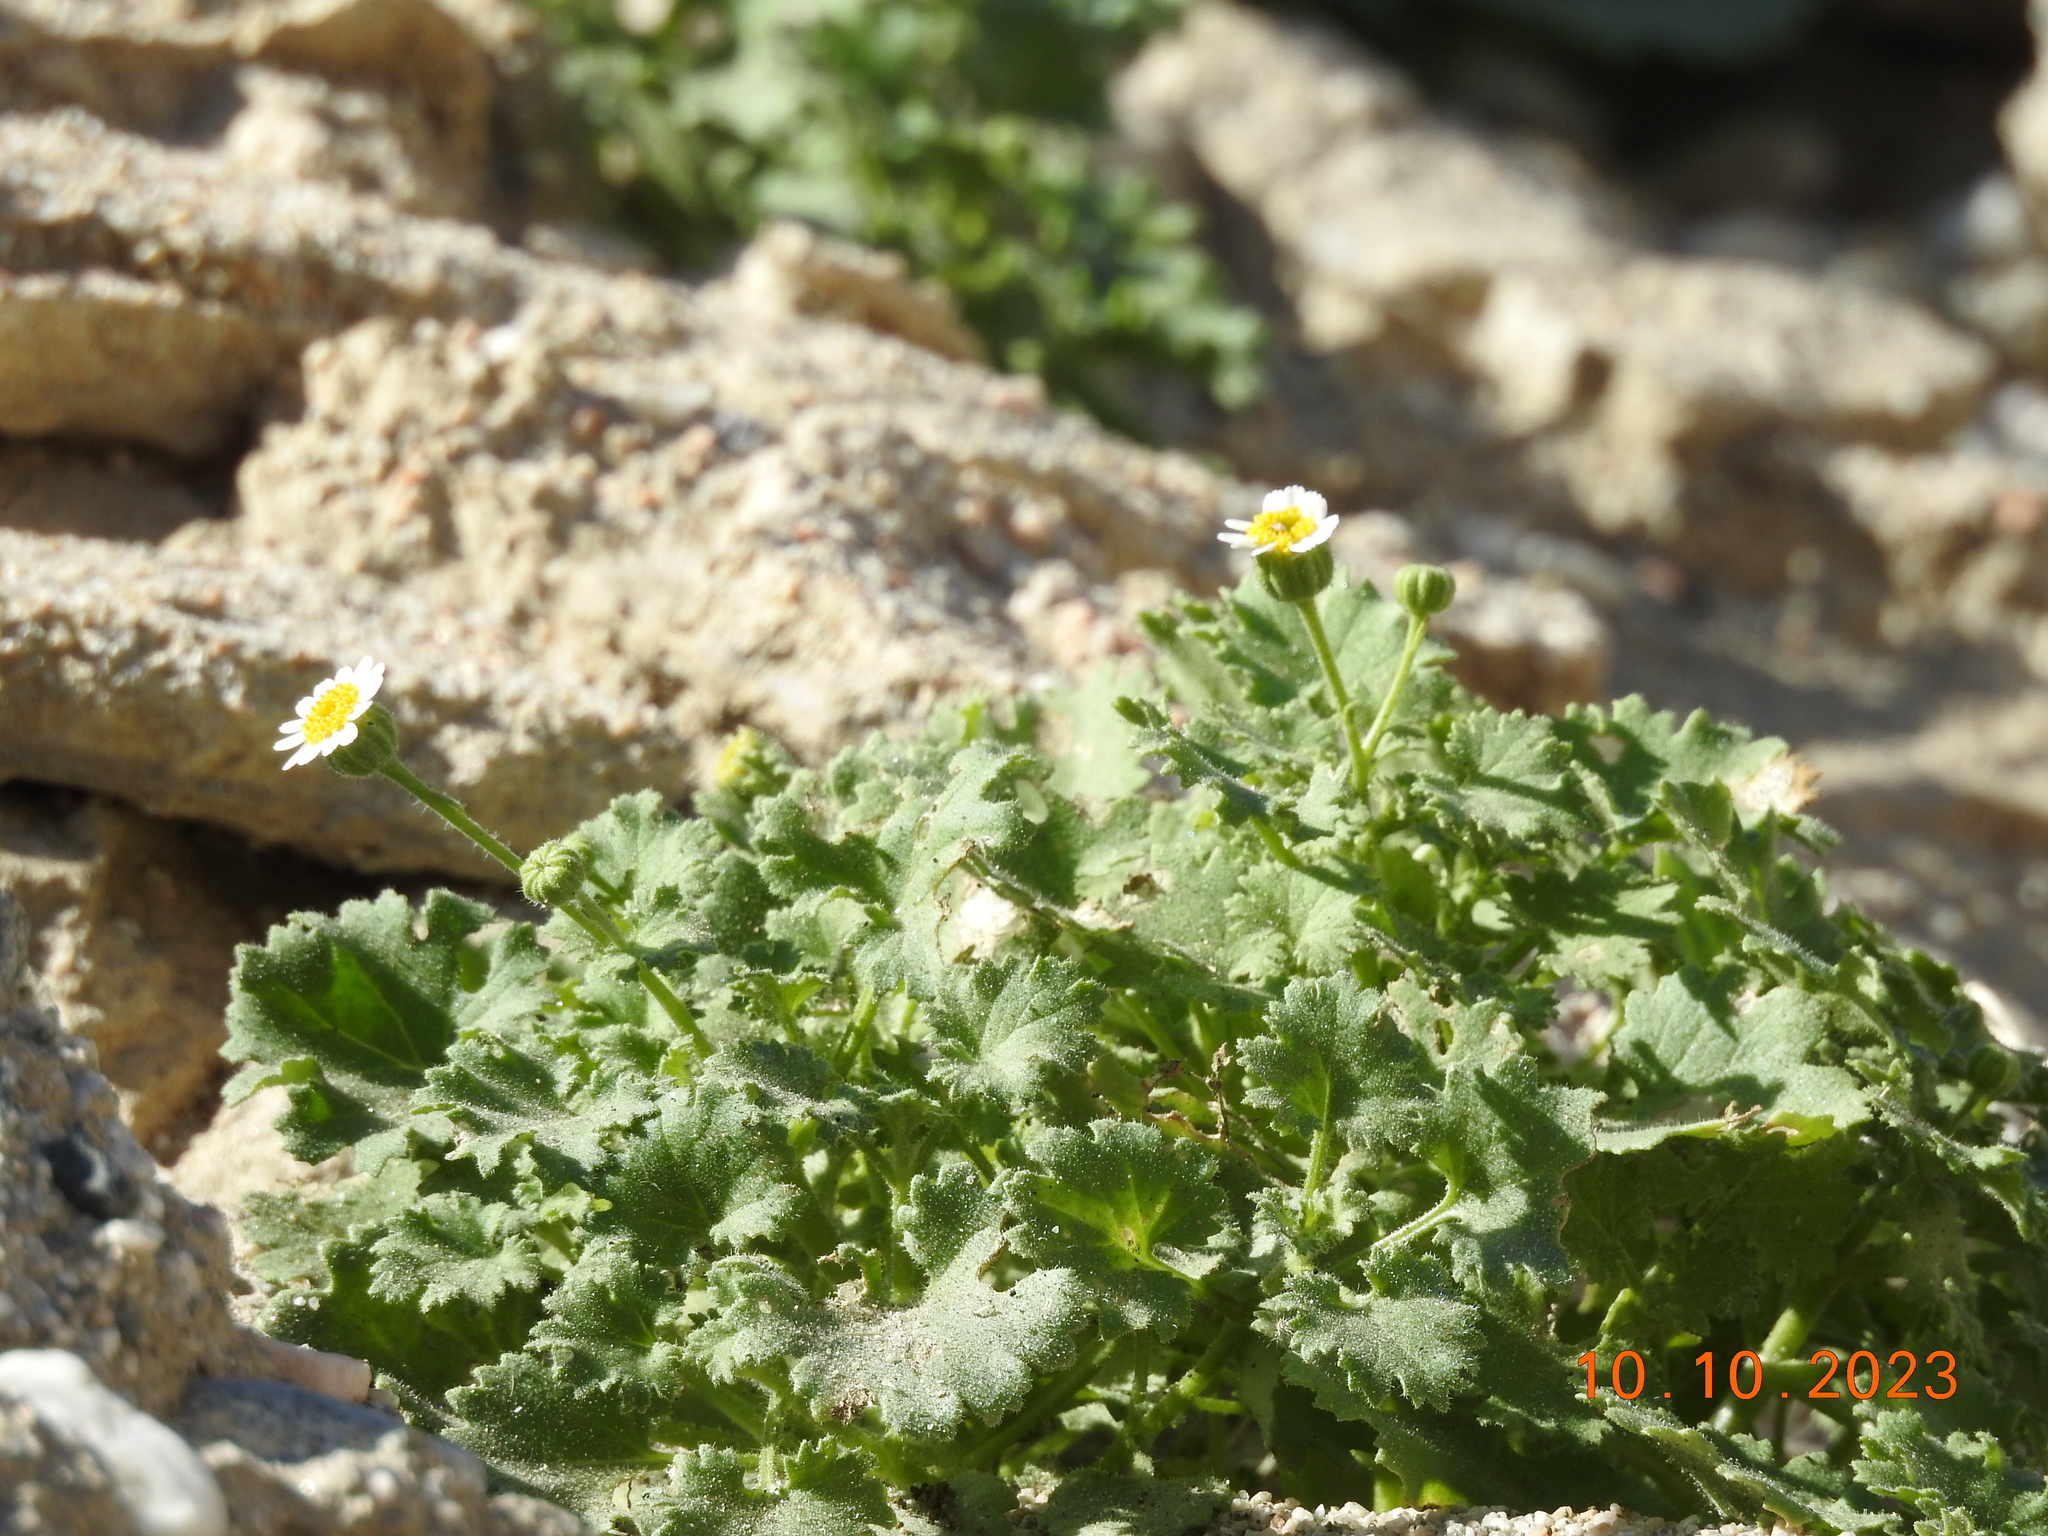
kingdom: Plantae
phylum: Tracheophyta
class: Magnoliopsida
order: Asterales
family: Asteraceae
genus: Laphamia
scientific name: Laphamia emoryi
